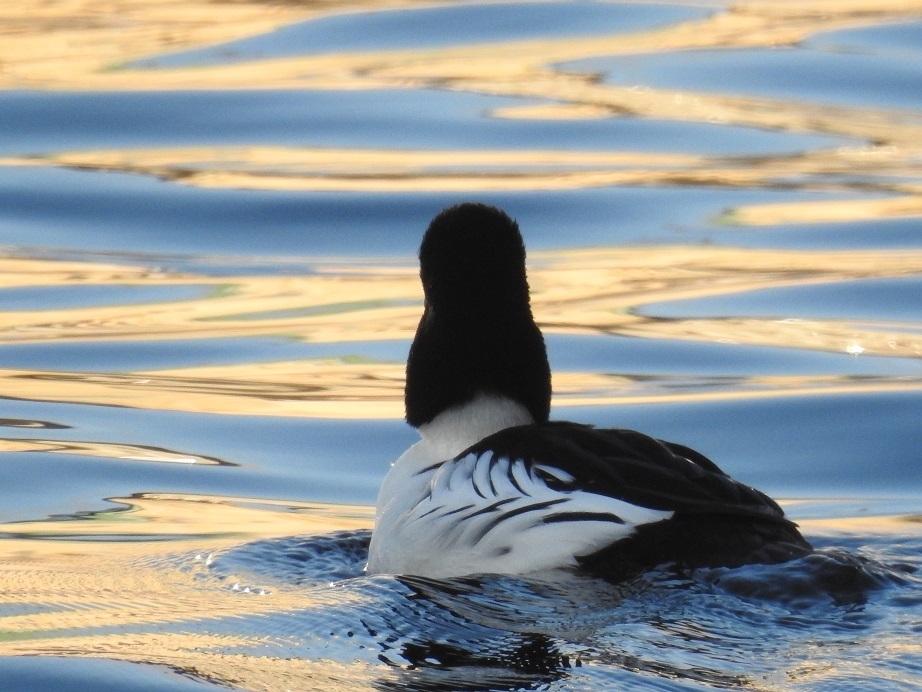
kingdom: Animalia
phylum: Chordata
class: Aves
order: Anseriformes
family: Anatidae
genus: Bucephala
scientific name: Bucephala clangula
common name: Common goldeneye
